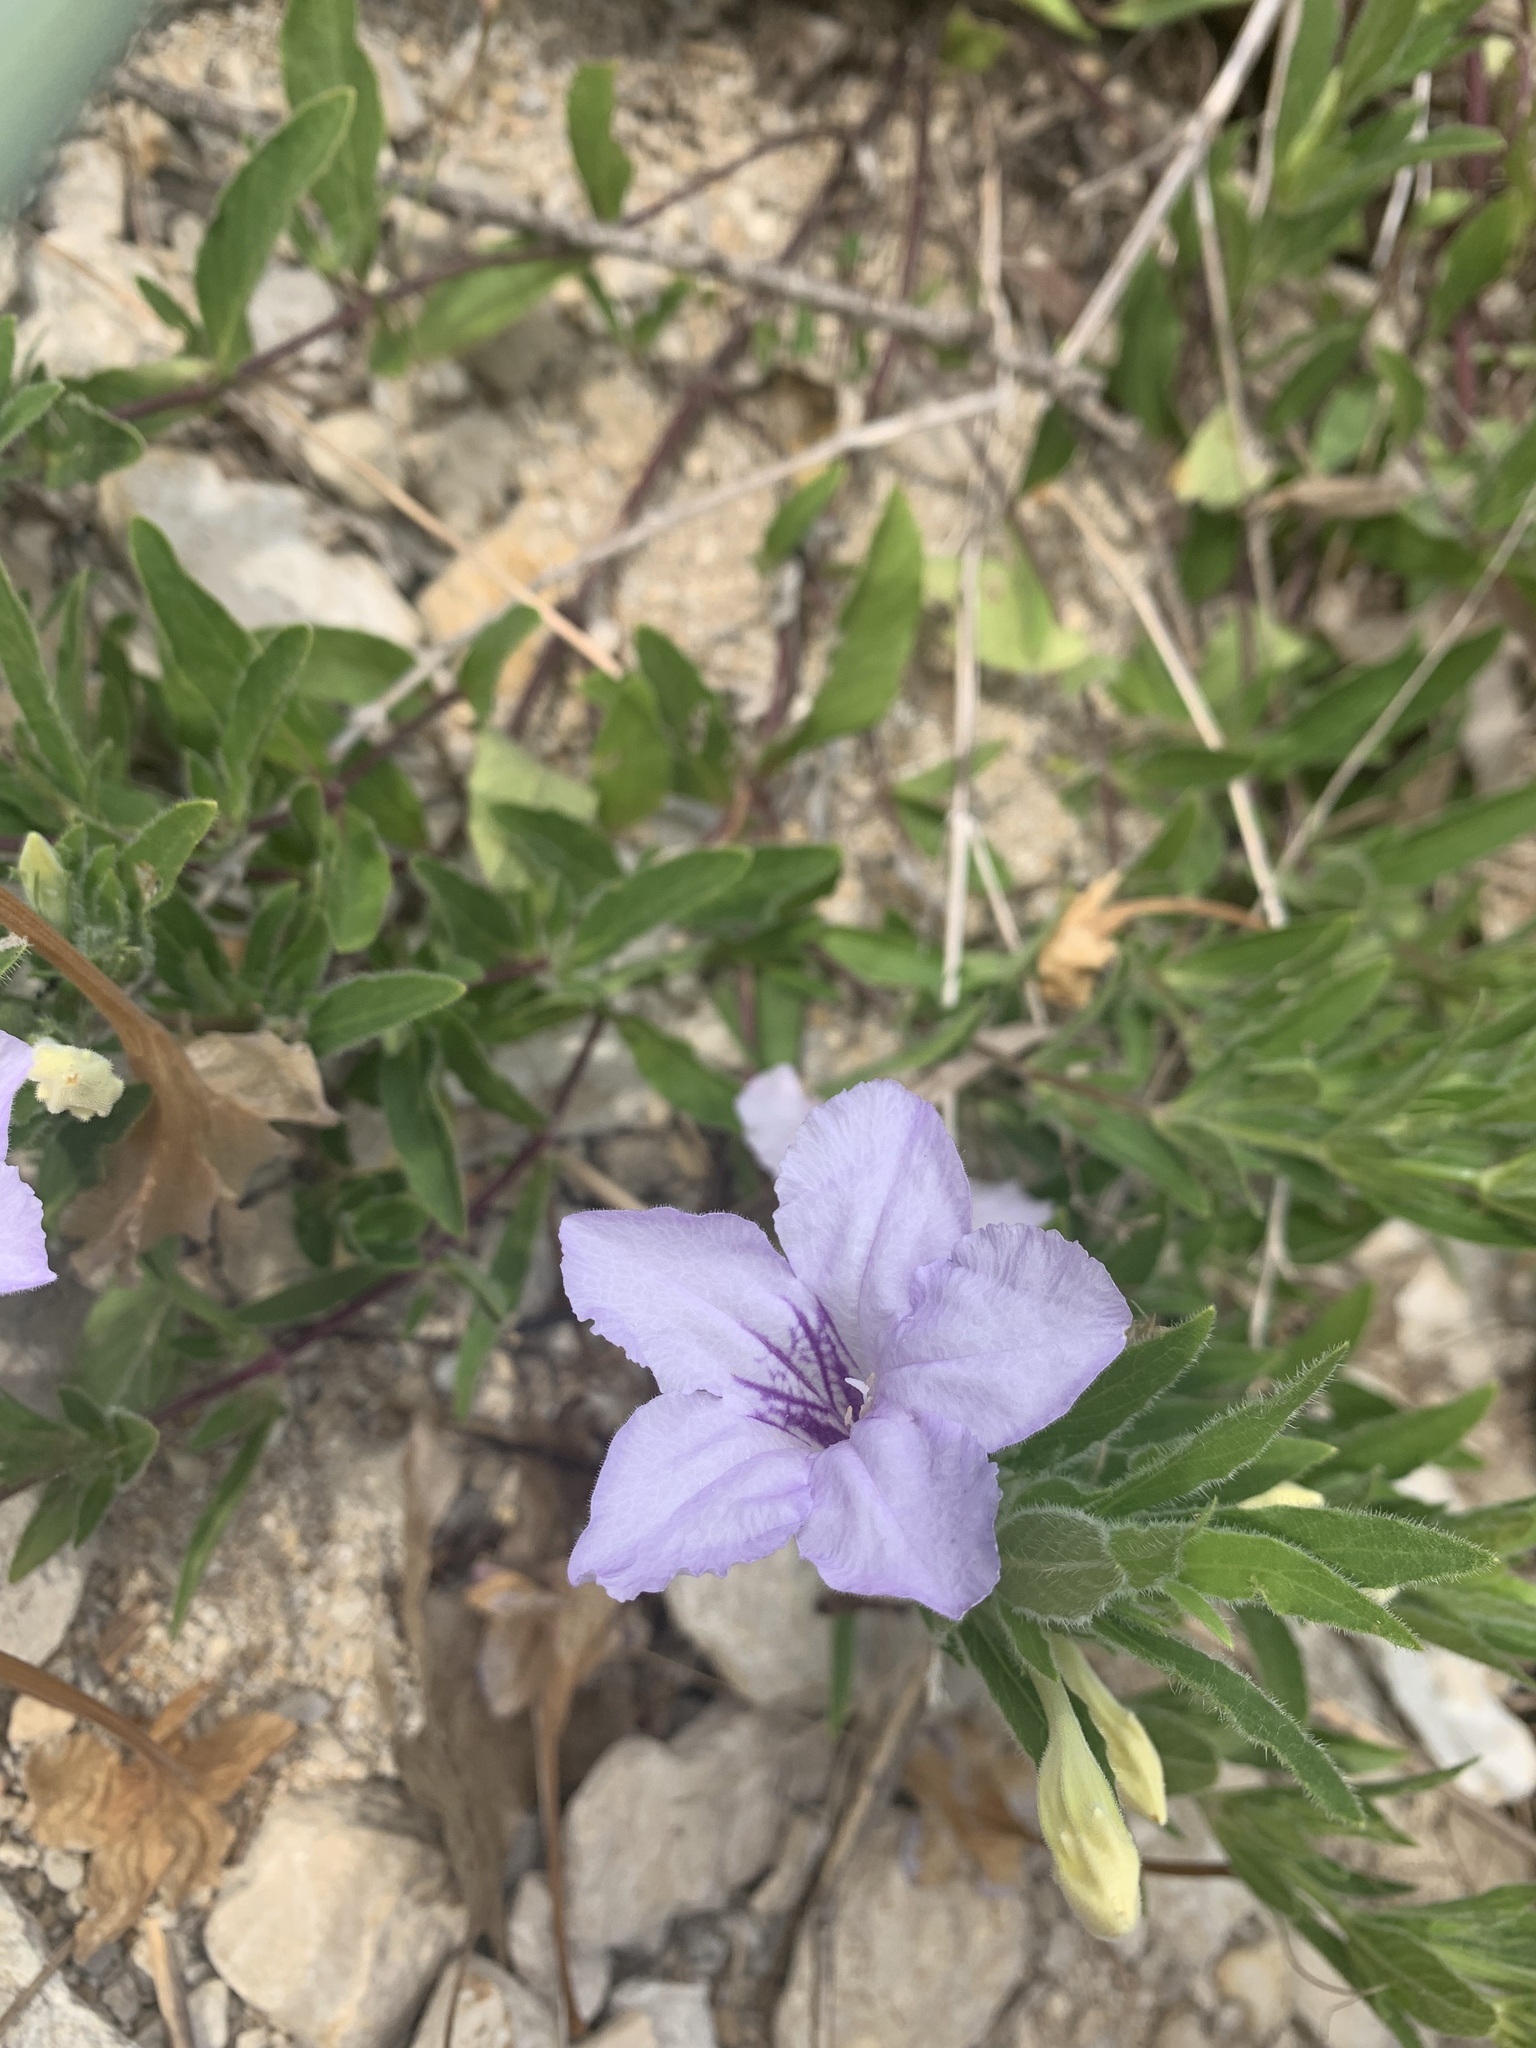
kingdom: Plantae
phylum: Tracheophyta
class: Magnoliopsida
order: Lamiales
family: Acanthaceae
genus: Ruellia
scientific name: Ruellia humilis
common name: Fringe-leaf ruellia
